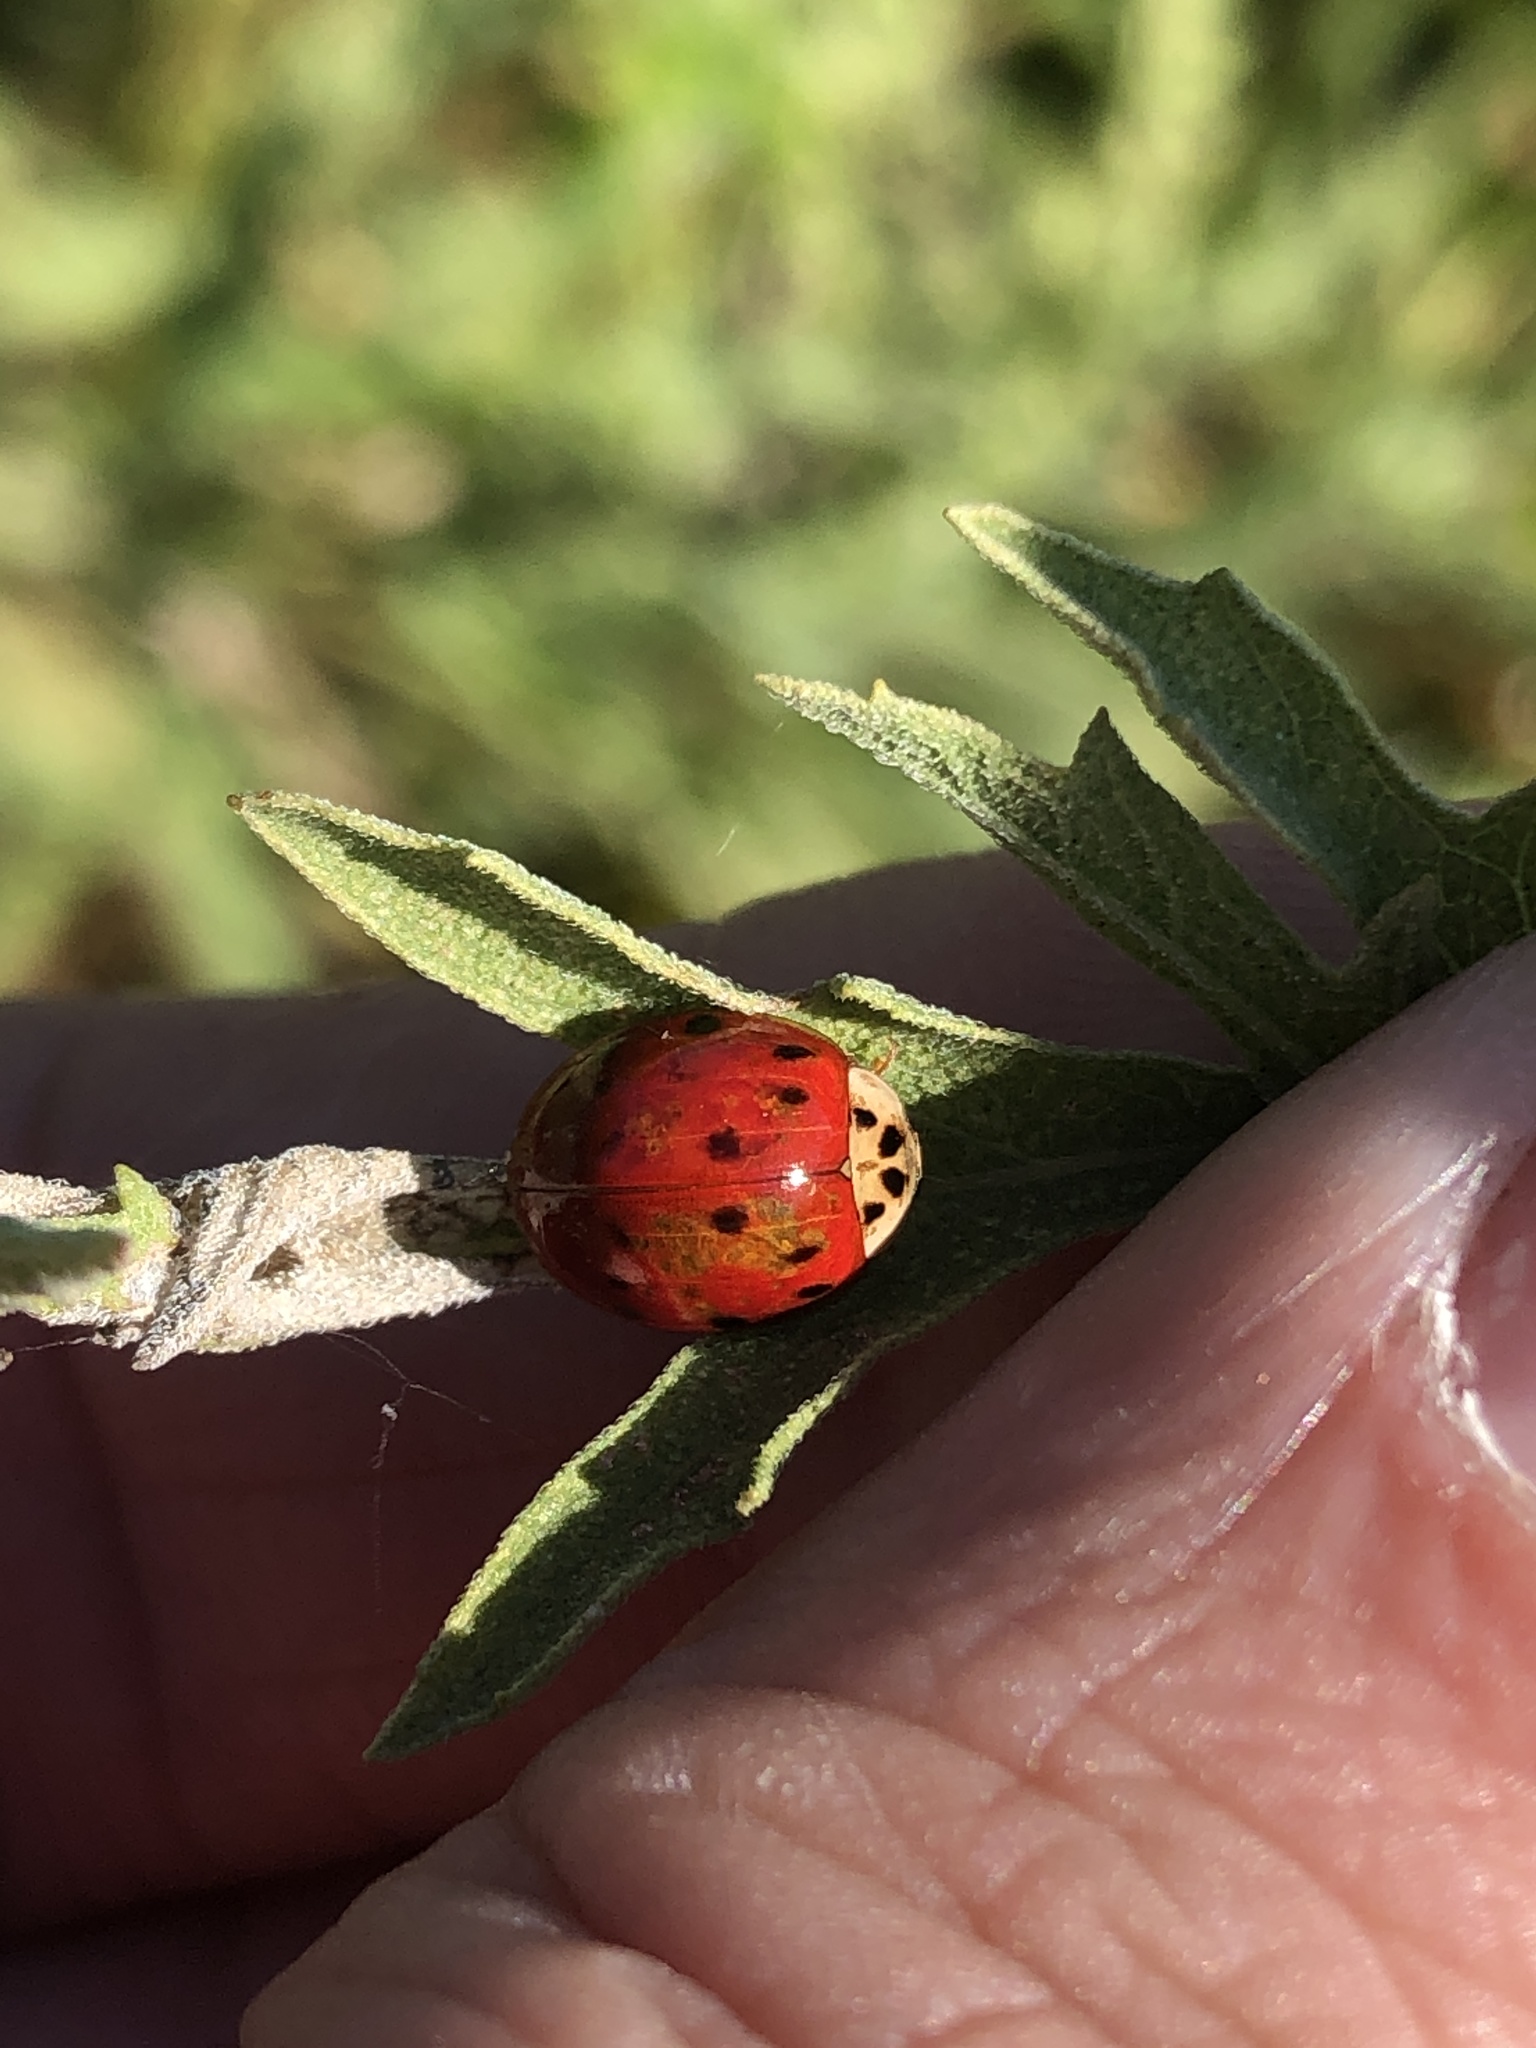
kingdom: Animalia
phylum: Arthropoda
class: Insecta
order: Coleoptera
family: Coccinellidae
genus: Harmonia
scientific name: Harmonia axyridis
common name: Harlequin ladybird
